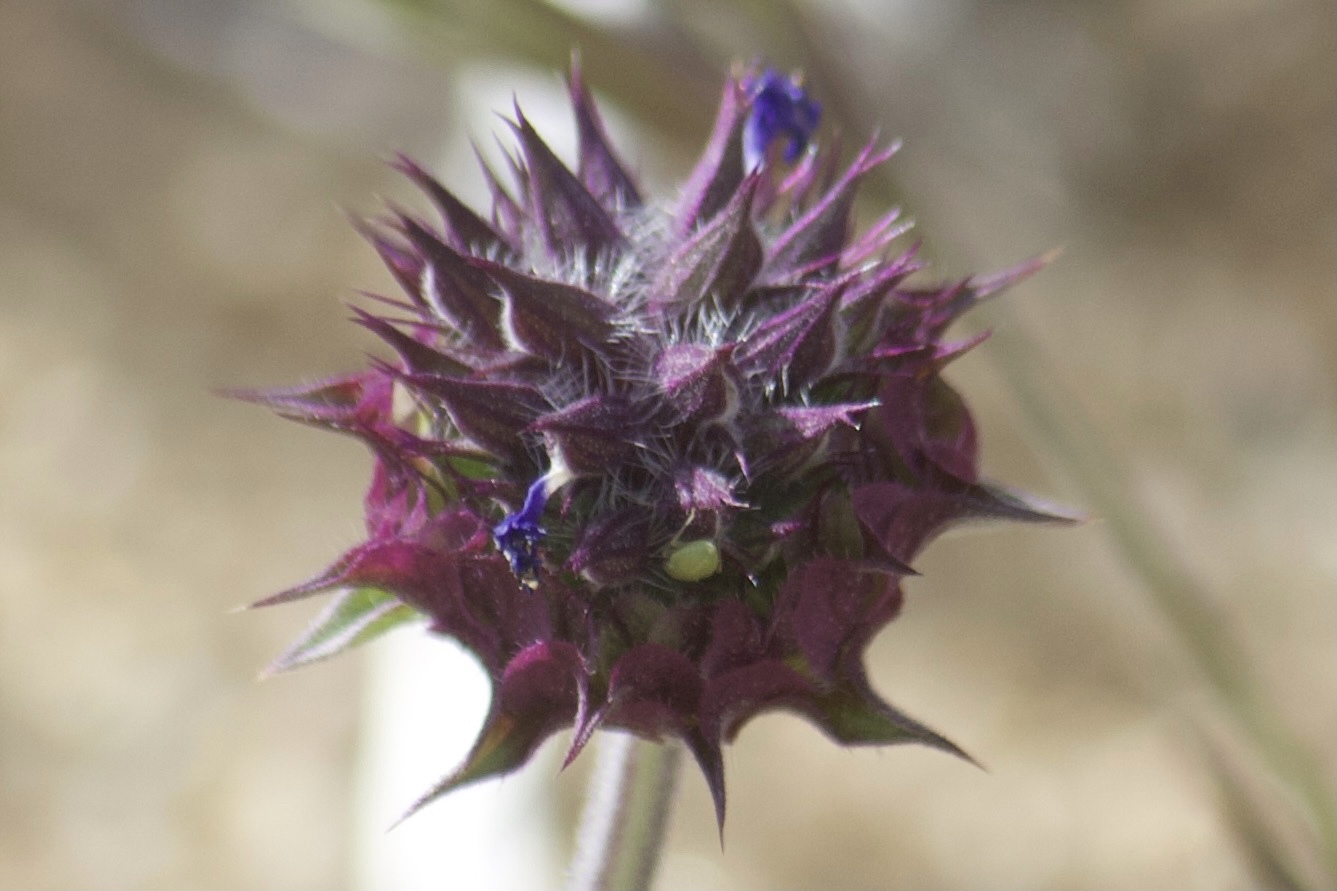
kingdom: Plantae
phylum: Tracheophyta
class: Magnoliopsida
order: Lamiales
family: Lamiaceae
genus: Salvia
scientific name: Salvia columbariae
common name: Chia
